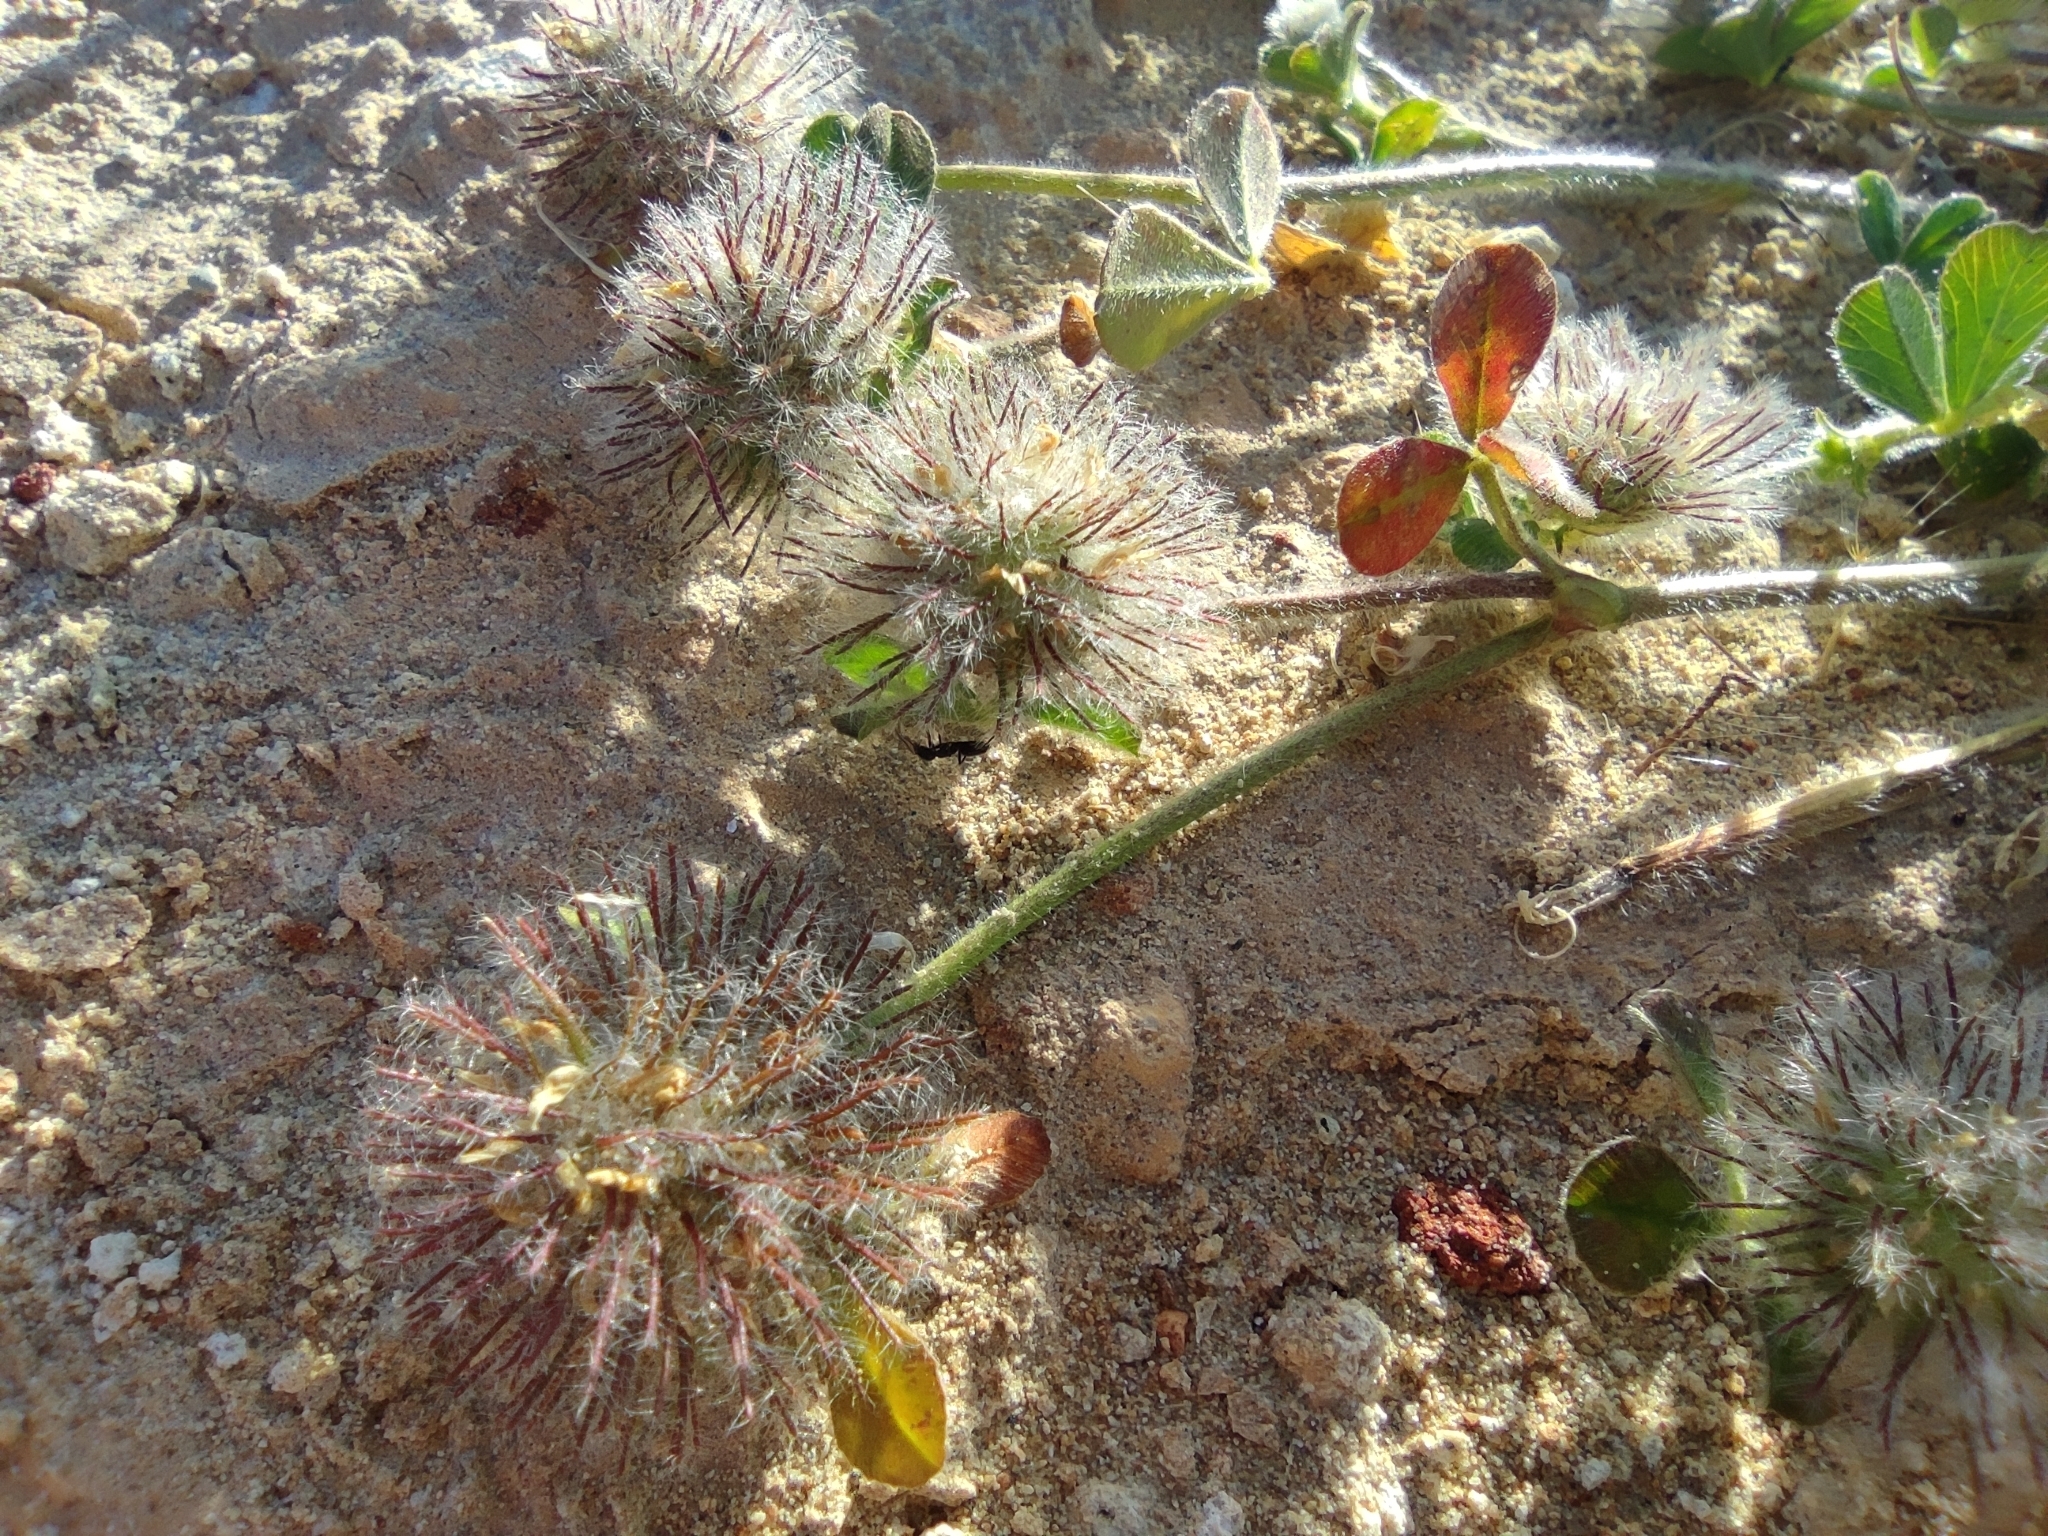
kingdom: Plantae
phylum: Tracheophyta
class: Magnoliopsida
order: Fabales
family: Fabaceae
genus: Trifolium
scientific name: Trifolium cherleri
